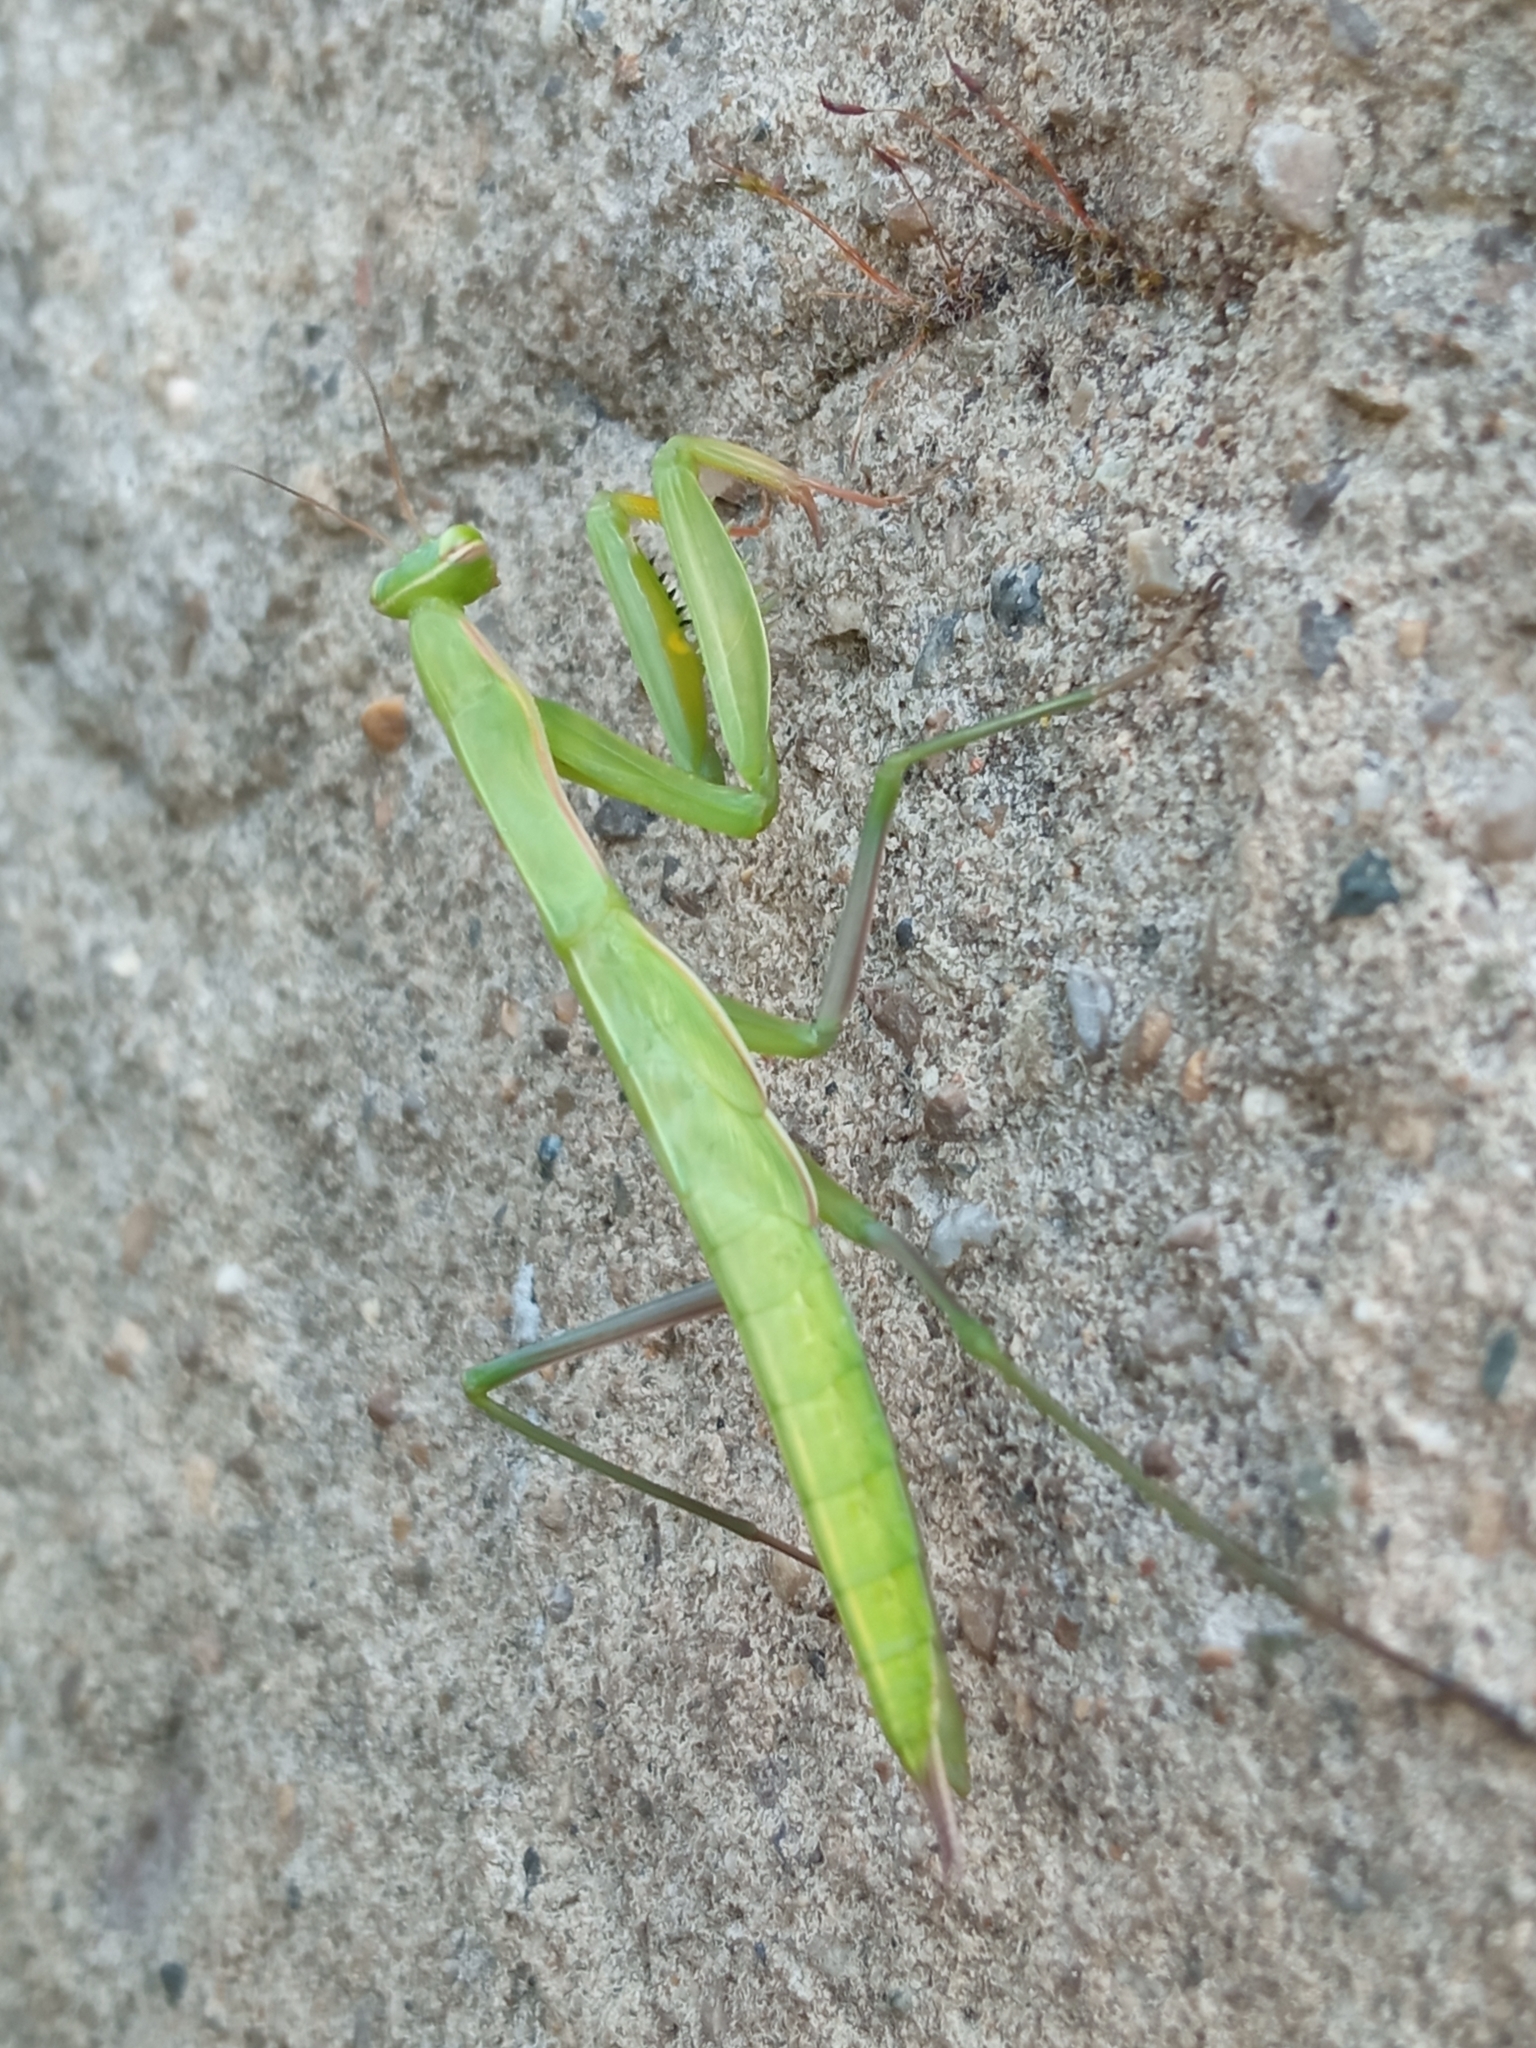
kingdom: Animalia
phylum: Arthropoda
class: Insecta
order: Mantodea
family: Mantidae
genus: Mantis
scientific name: Mantis religiosa
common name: Praying mantis
